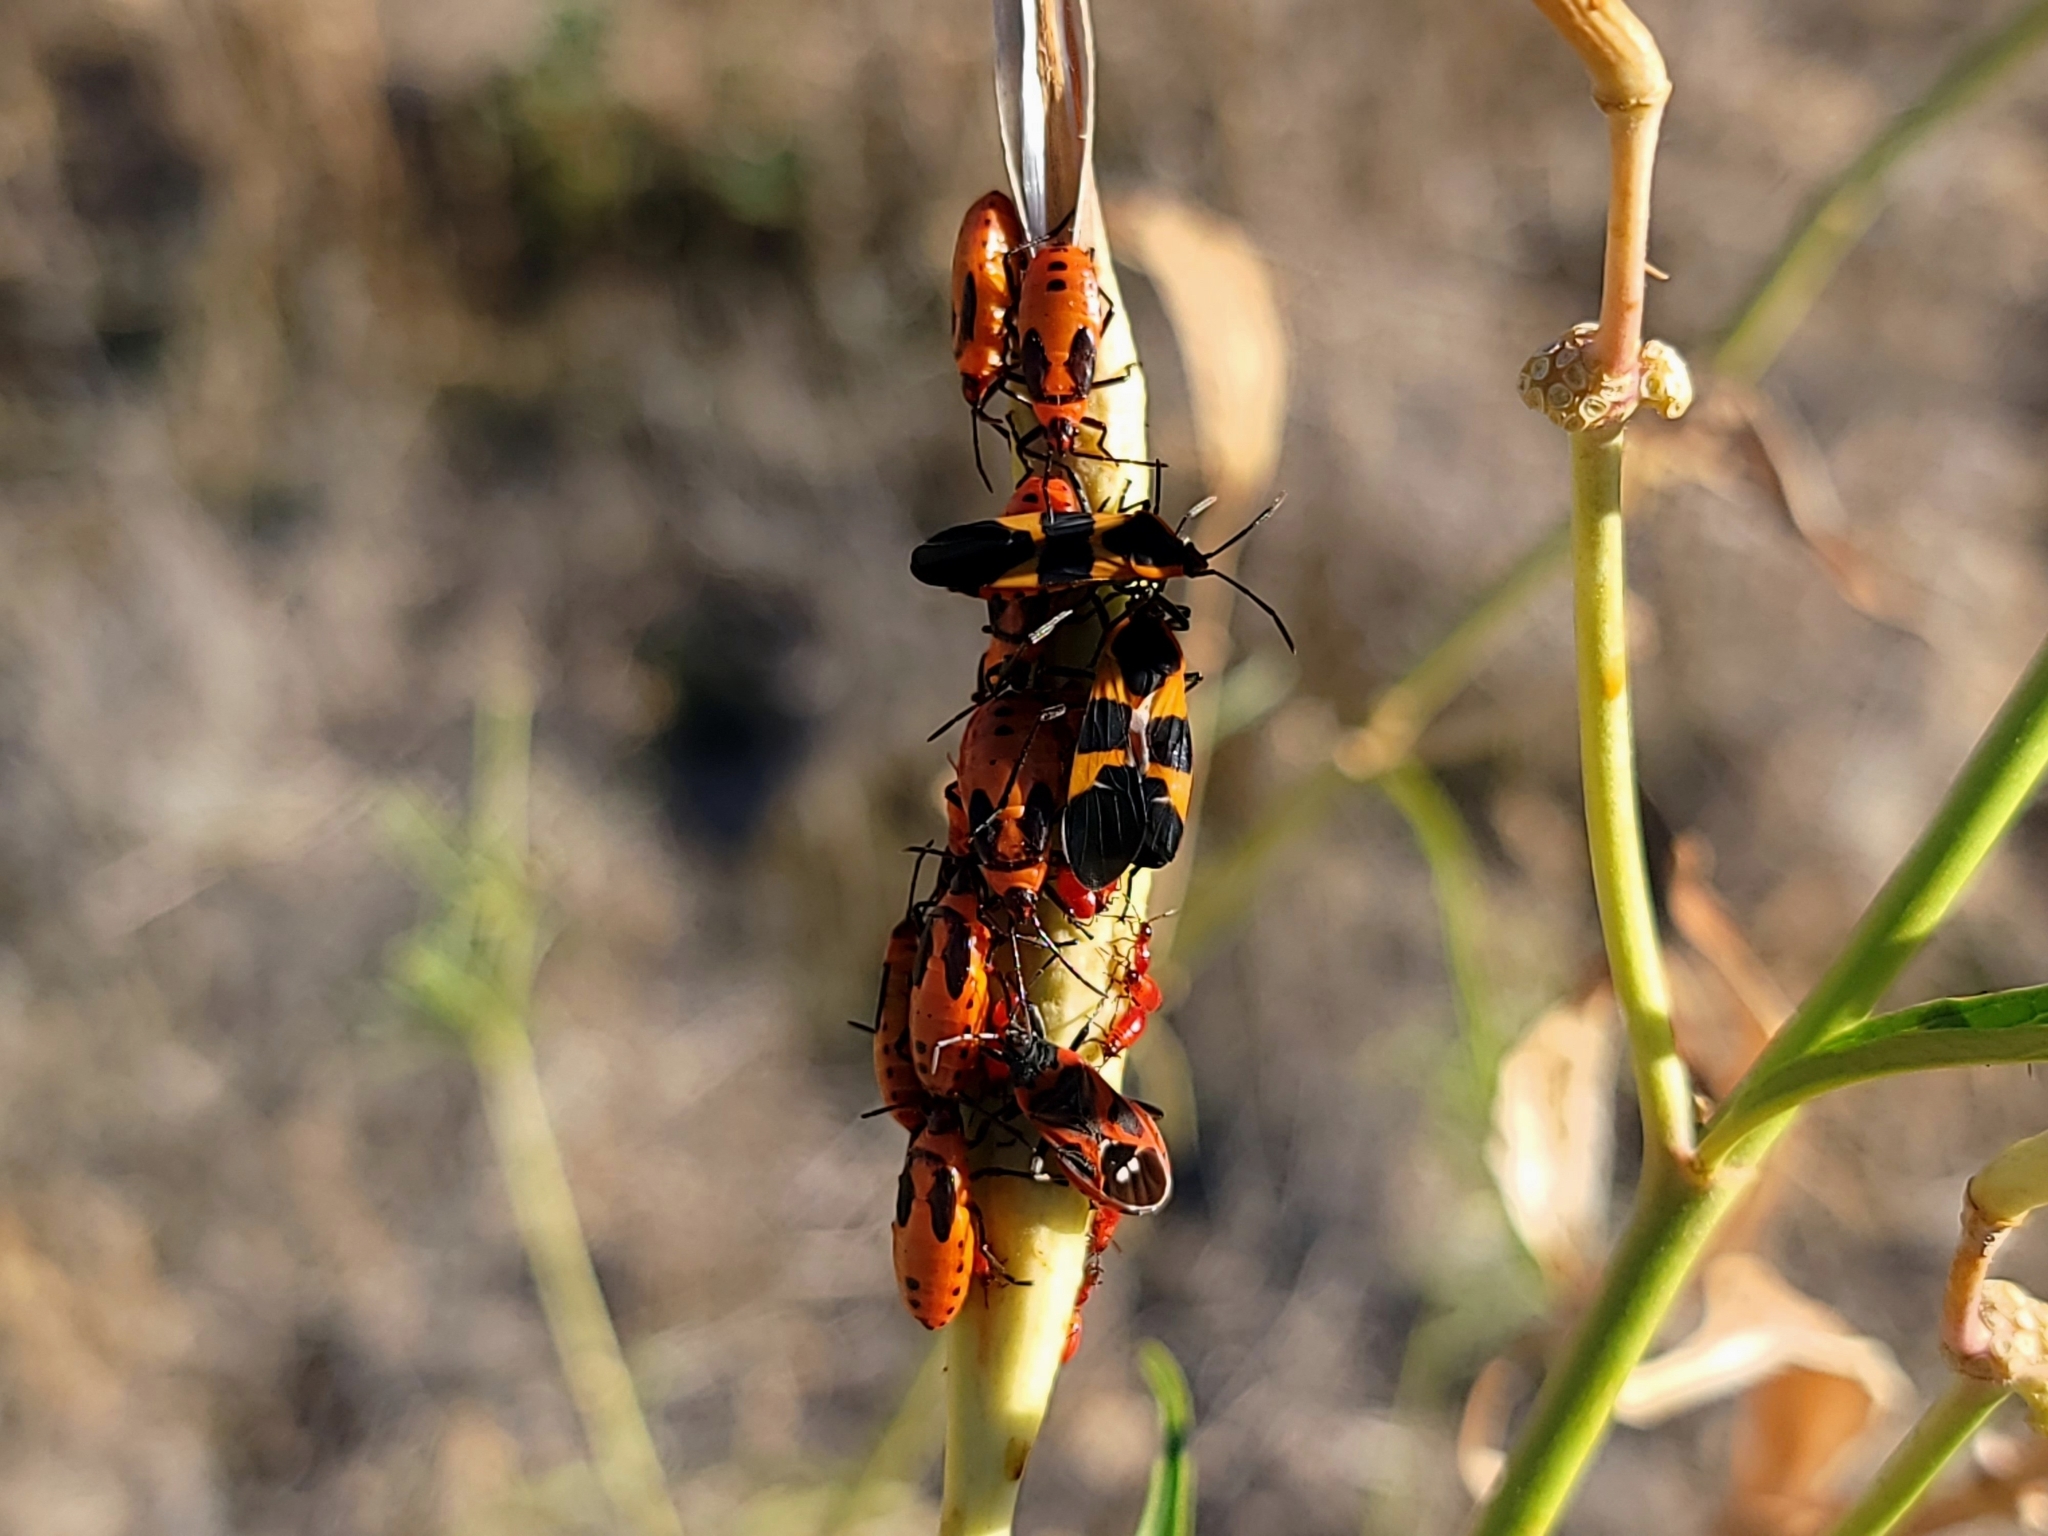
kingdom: Animalia
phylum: Arthropoda
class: Insecta
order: Hemiptera
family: Lygaeidae
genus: Oncopeltus
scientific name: Oncopeltus fasciatus
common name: Large milkweed bug
